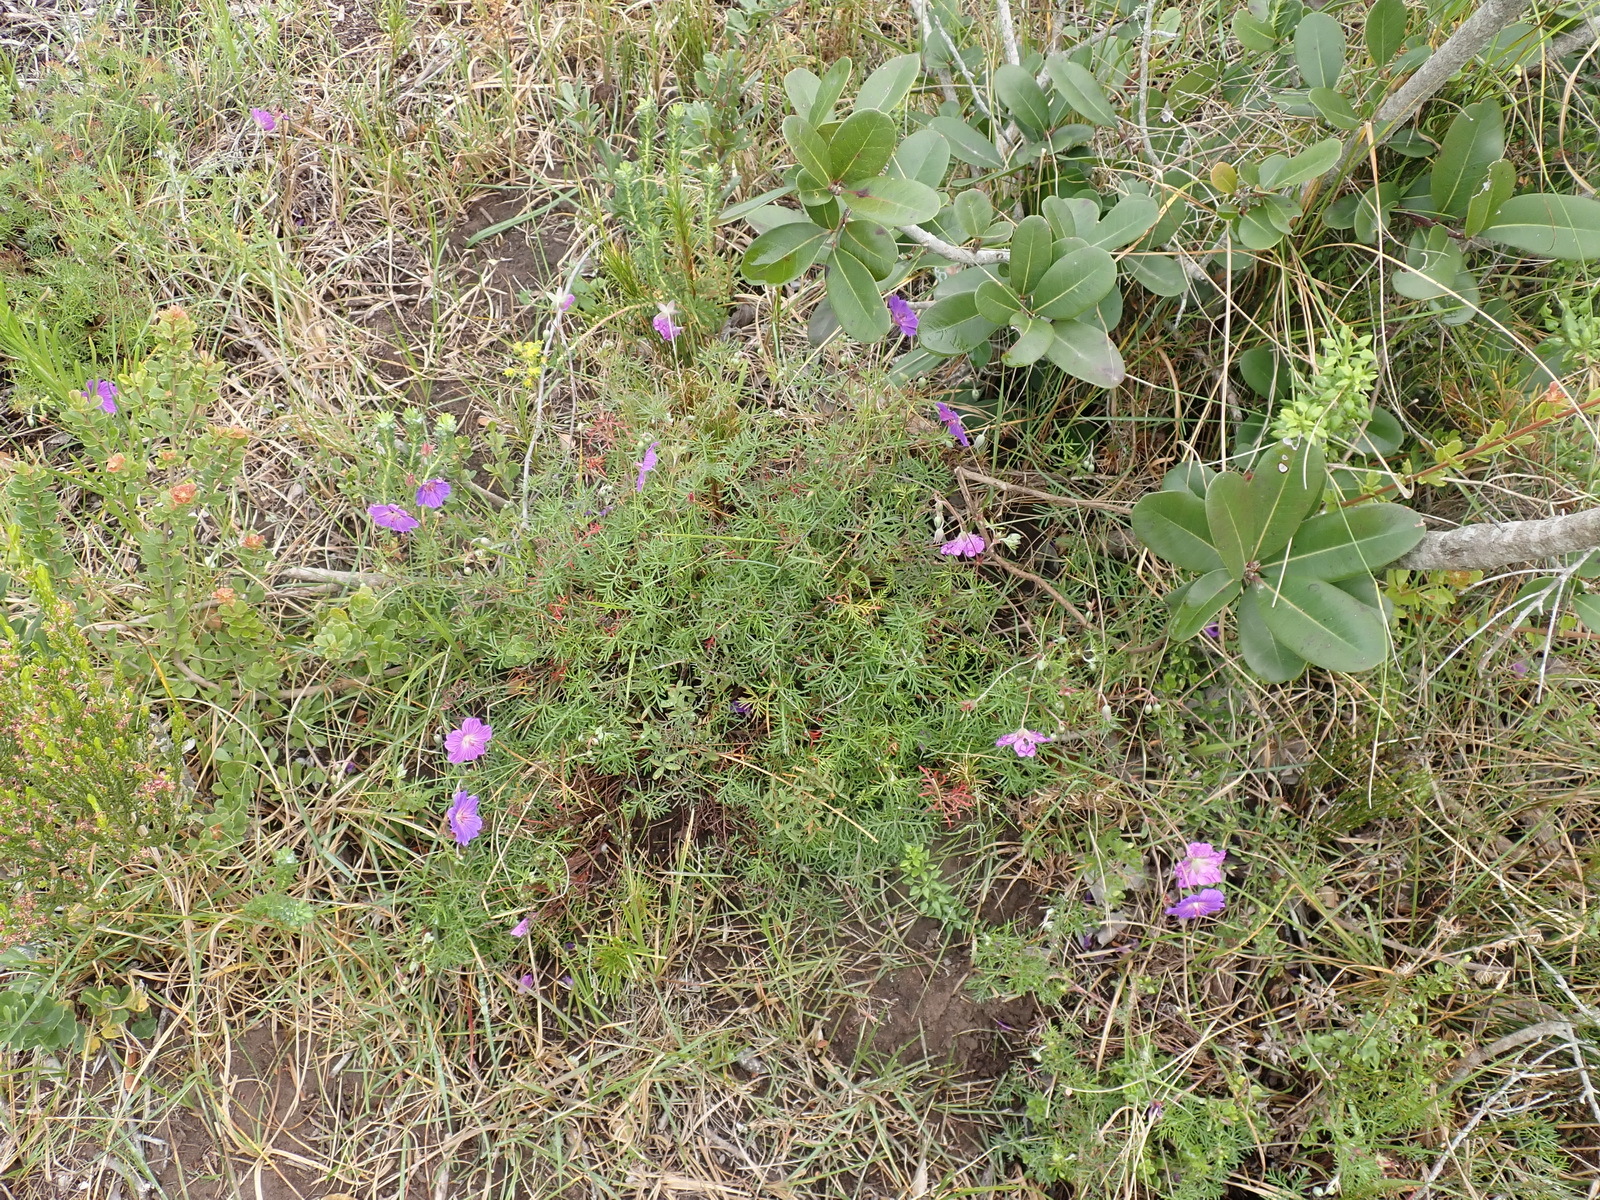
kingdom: Plantae
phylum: Tracheophyta
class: Magnoliopsida
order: Geraniales
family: Geraniaceae
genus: Geranium
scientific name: Geranium incanum
